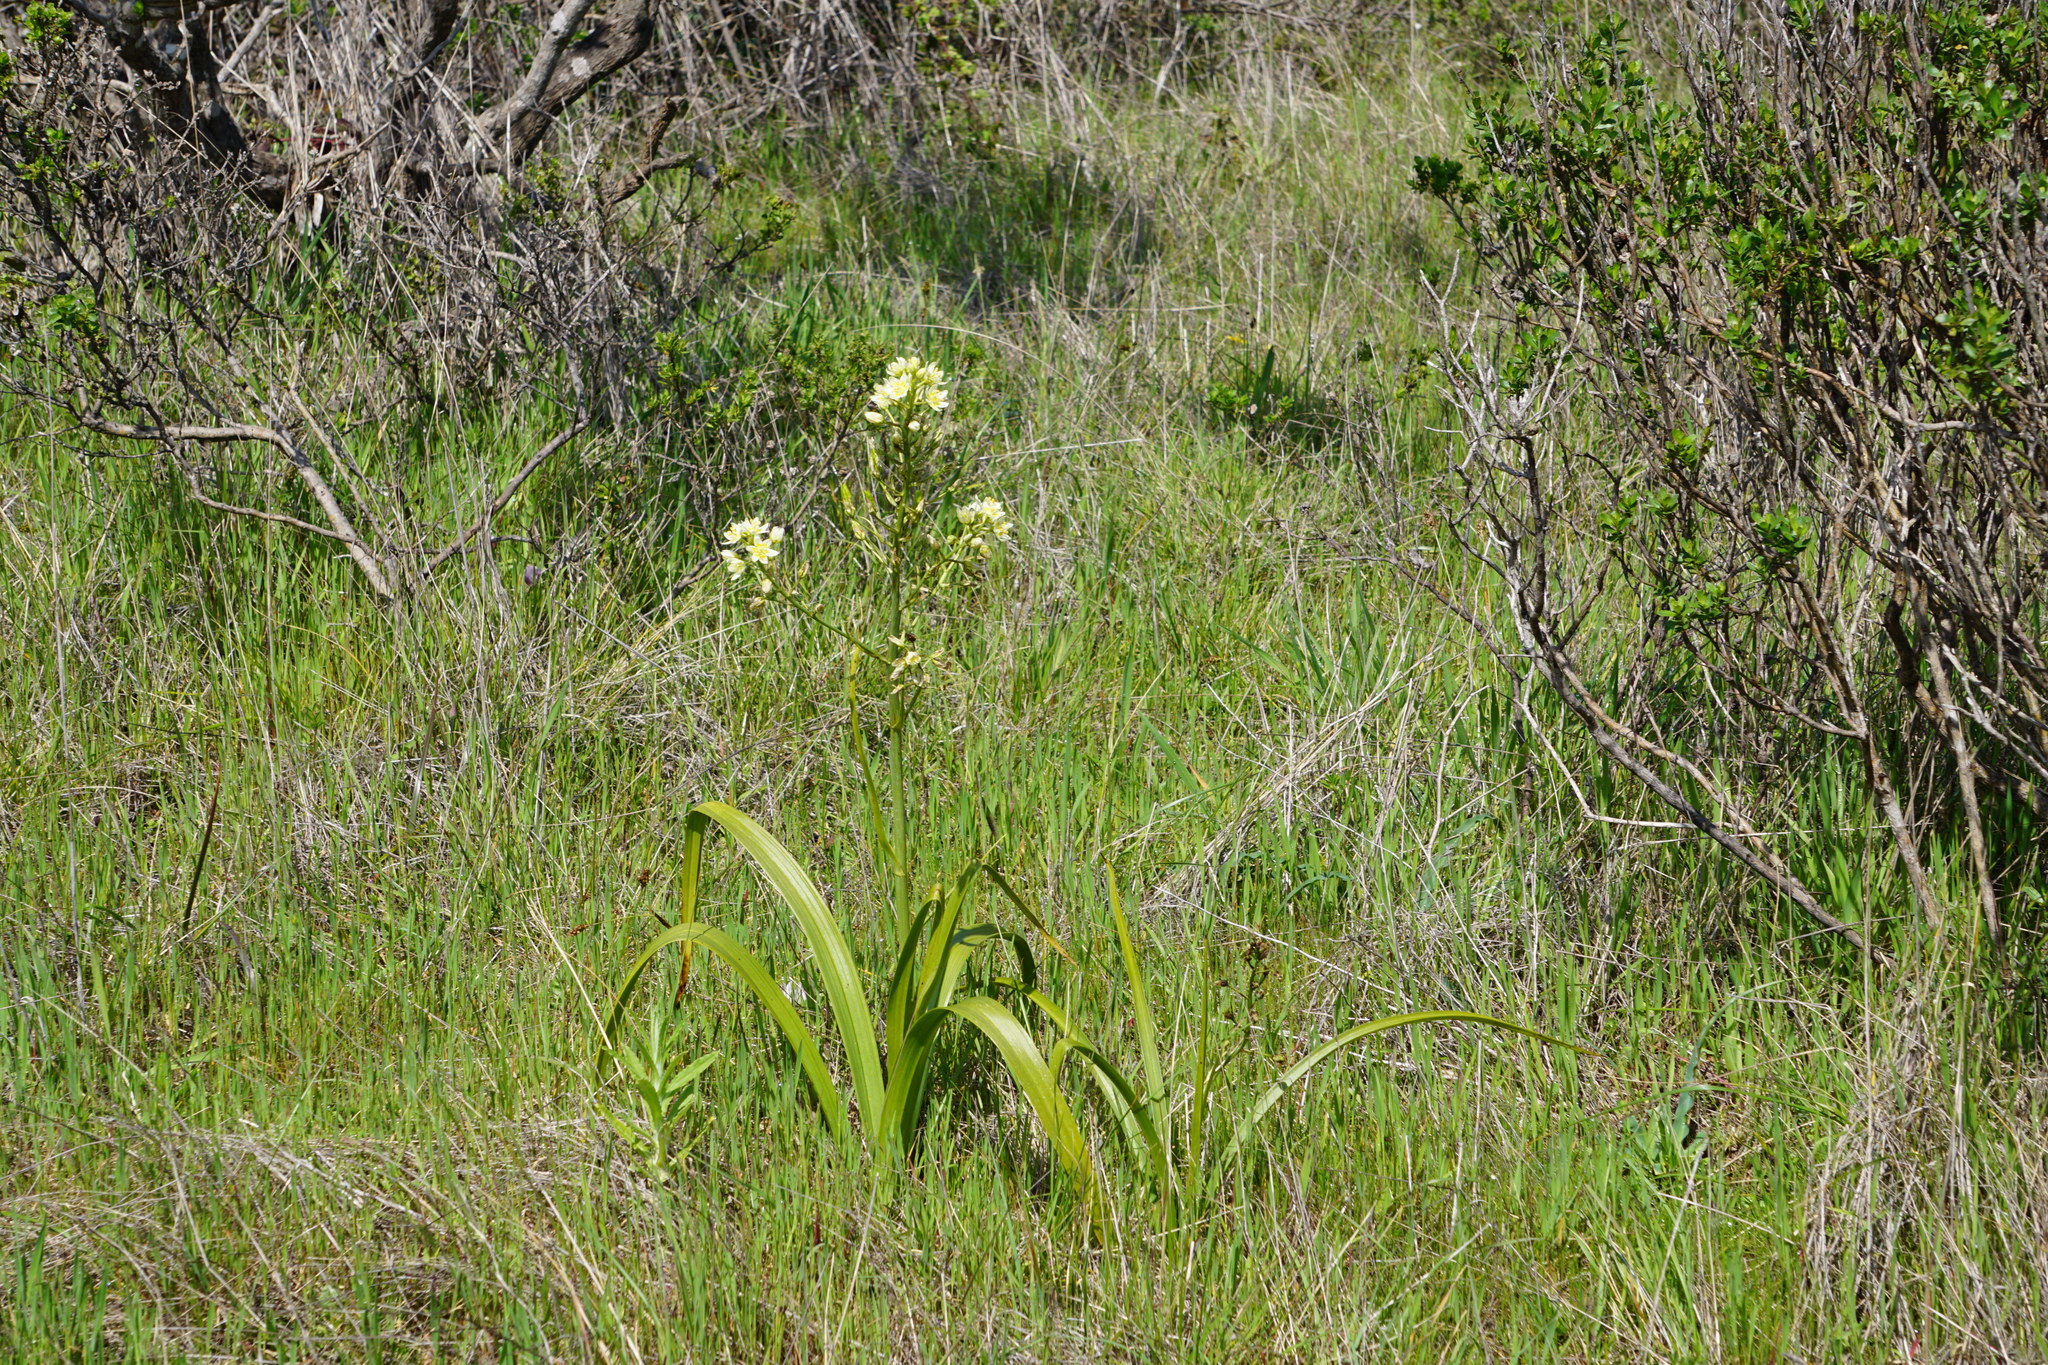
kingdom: Plantae
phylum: Tracheophyta
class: Liliopsida
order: Liliales
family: Melanthiaceae
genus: Toxicoscordion
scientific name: Toxicoscordion fremontii
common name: Fremont's death camas
